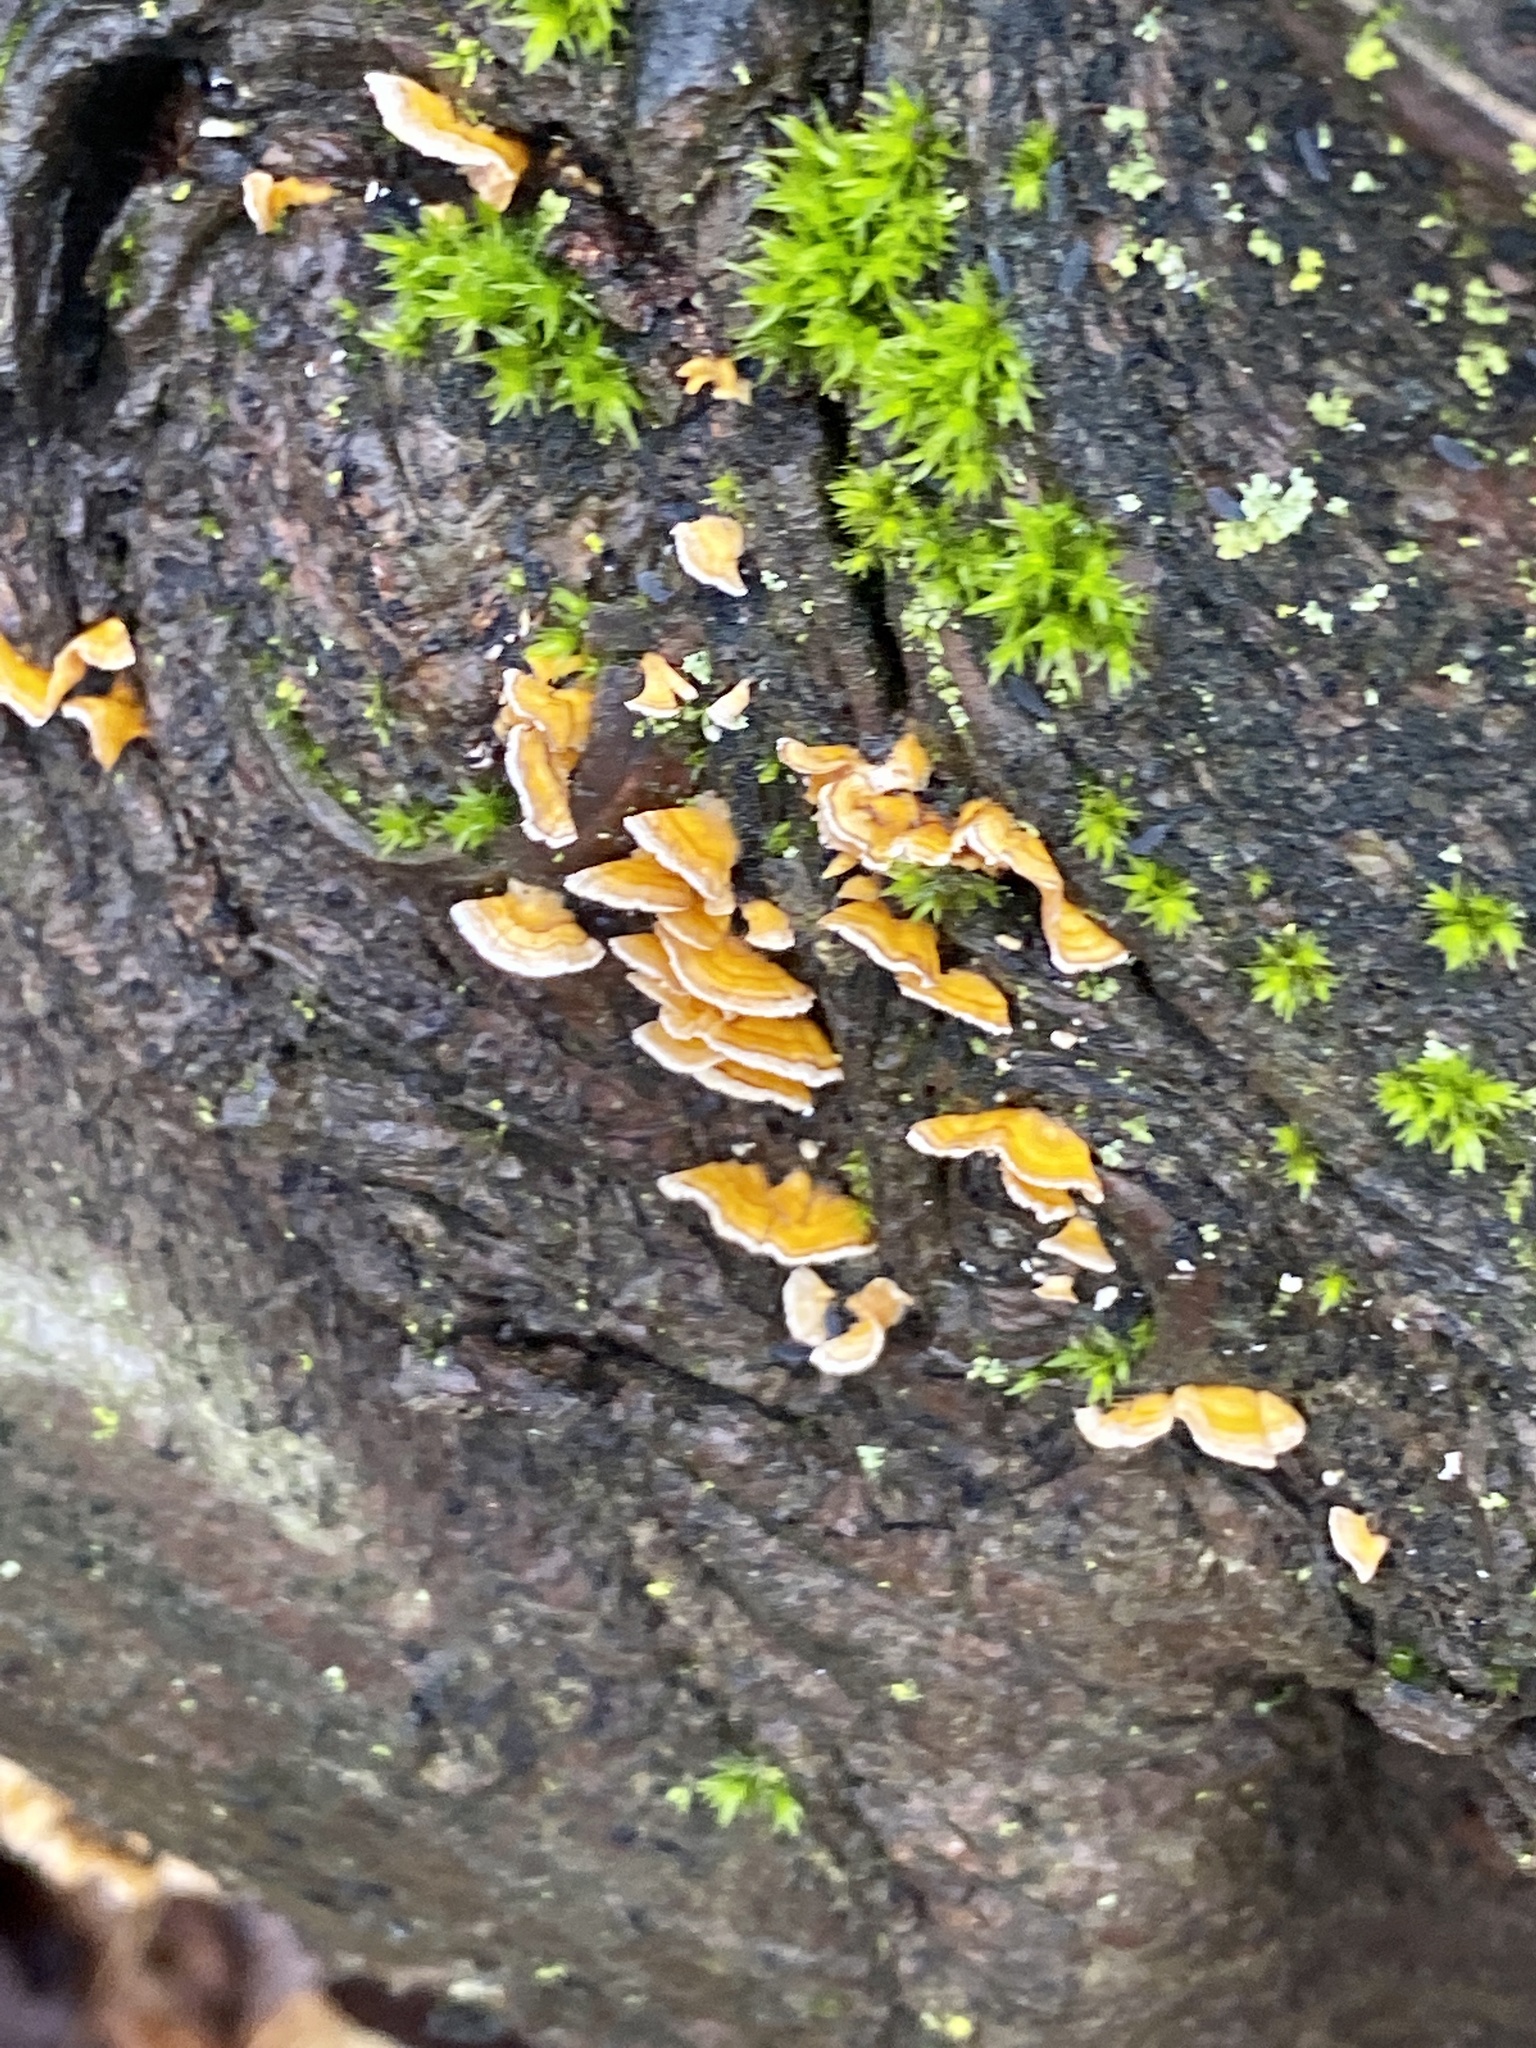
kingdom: Fungi
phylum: Basidiomycota
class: Agaricomycetes
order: Russulales
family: Stereaceae
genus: Stereum
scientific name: Stereum complicatum
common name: Crowded parchment
